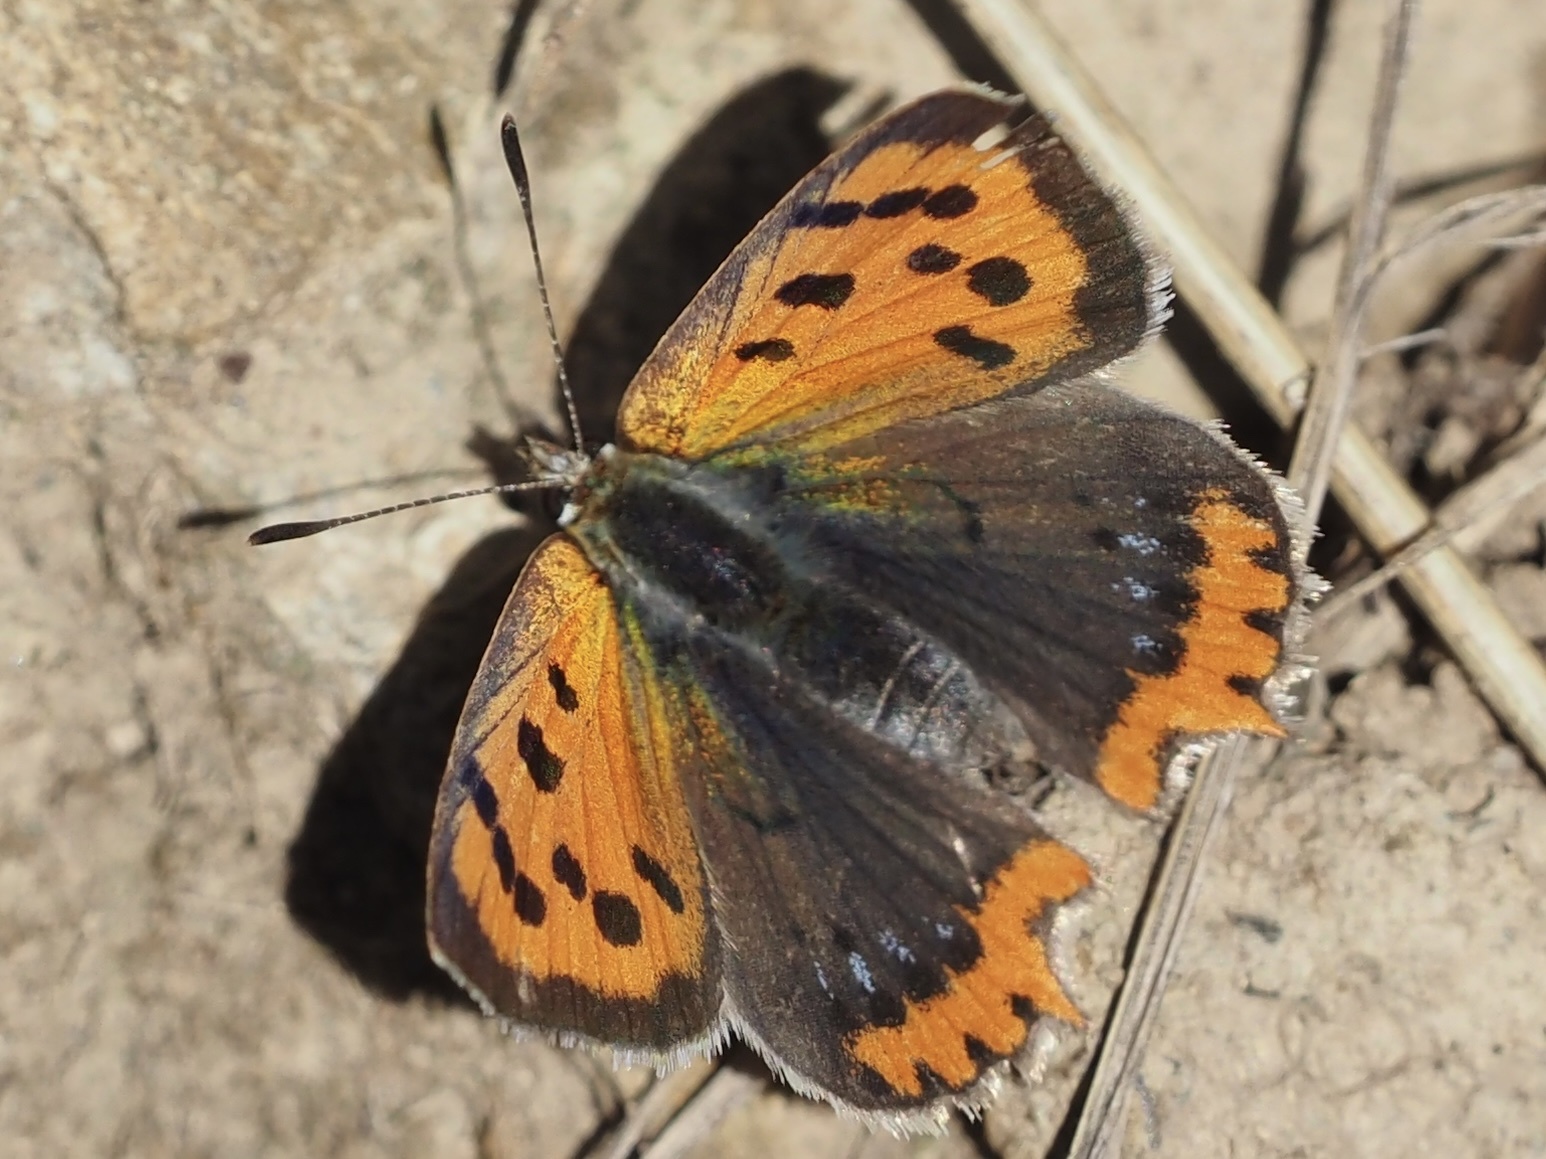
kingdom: Animalia
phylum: Arthropoda
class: Insecta
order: Lepidoptera
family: Lycaenidae
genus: Lycaena
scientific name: Lycaena phlaeas
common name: Small copper
